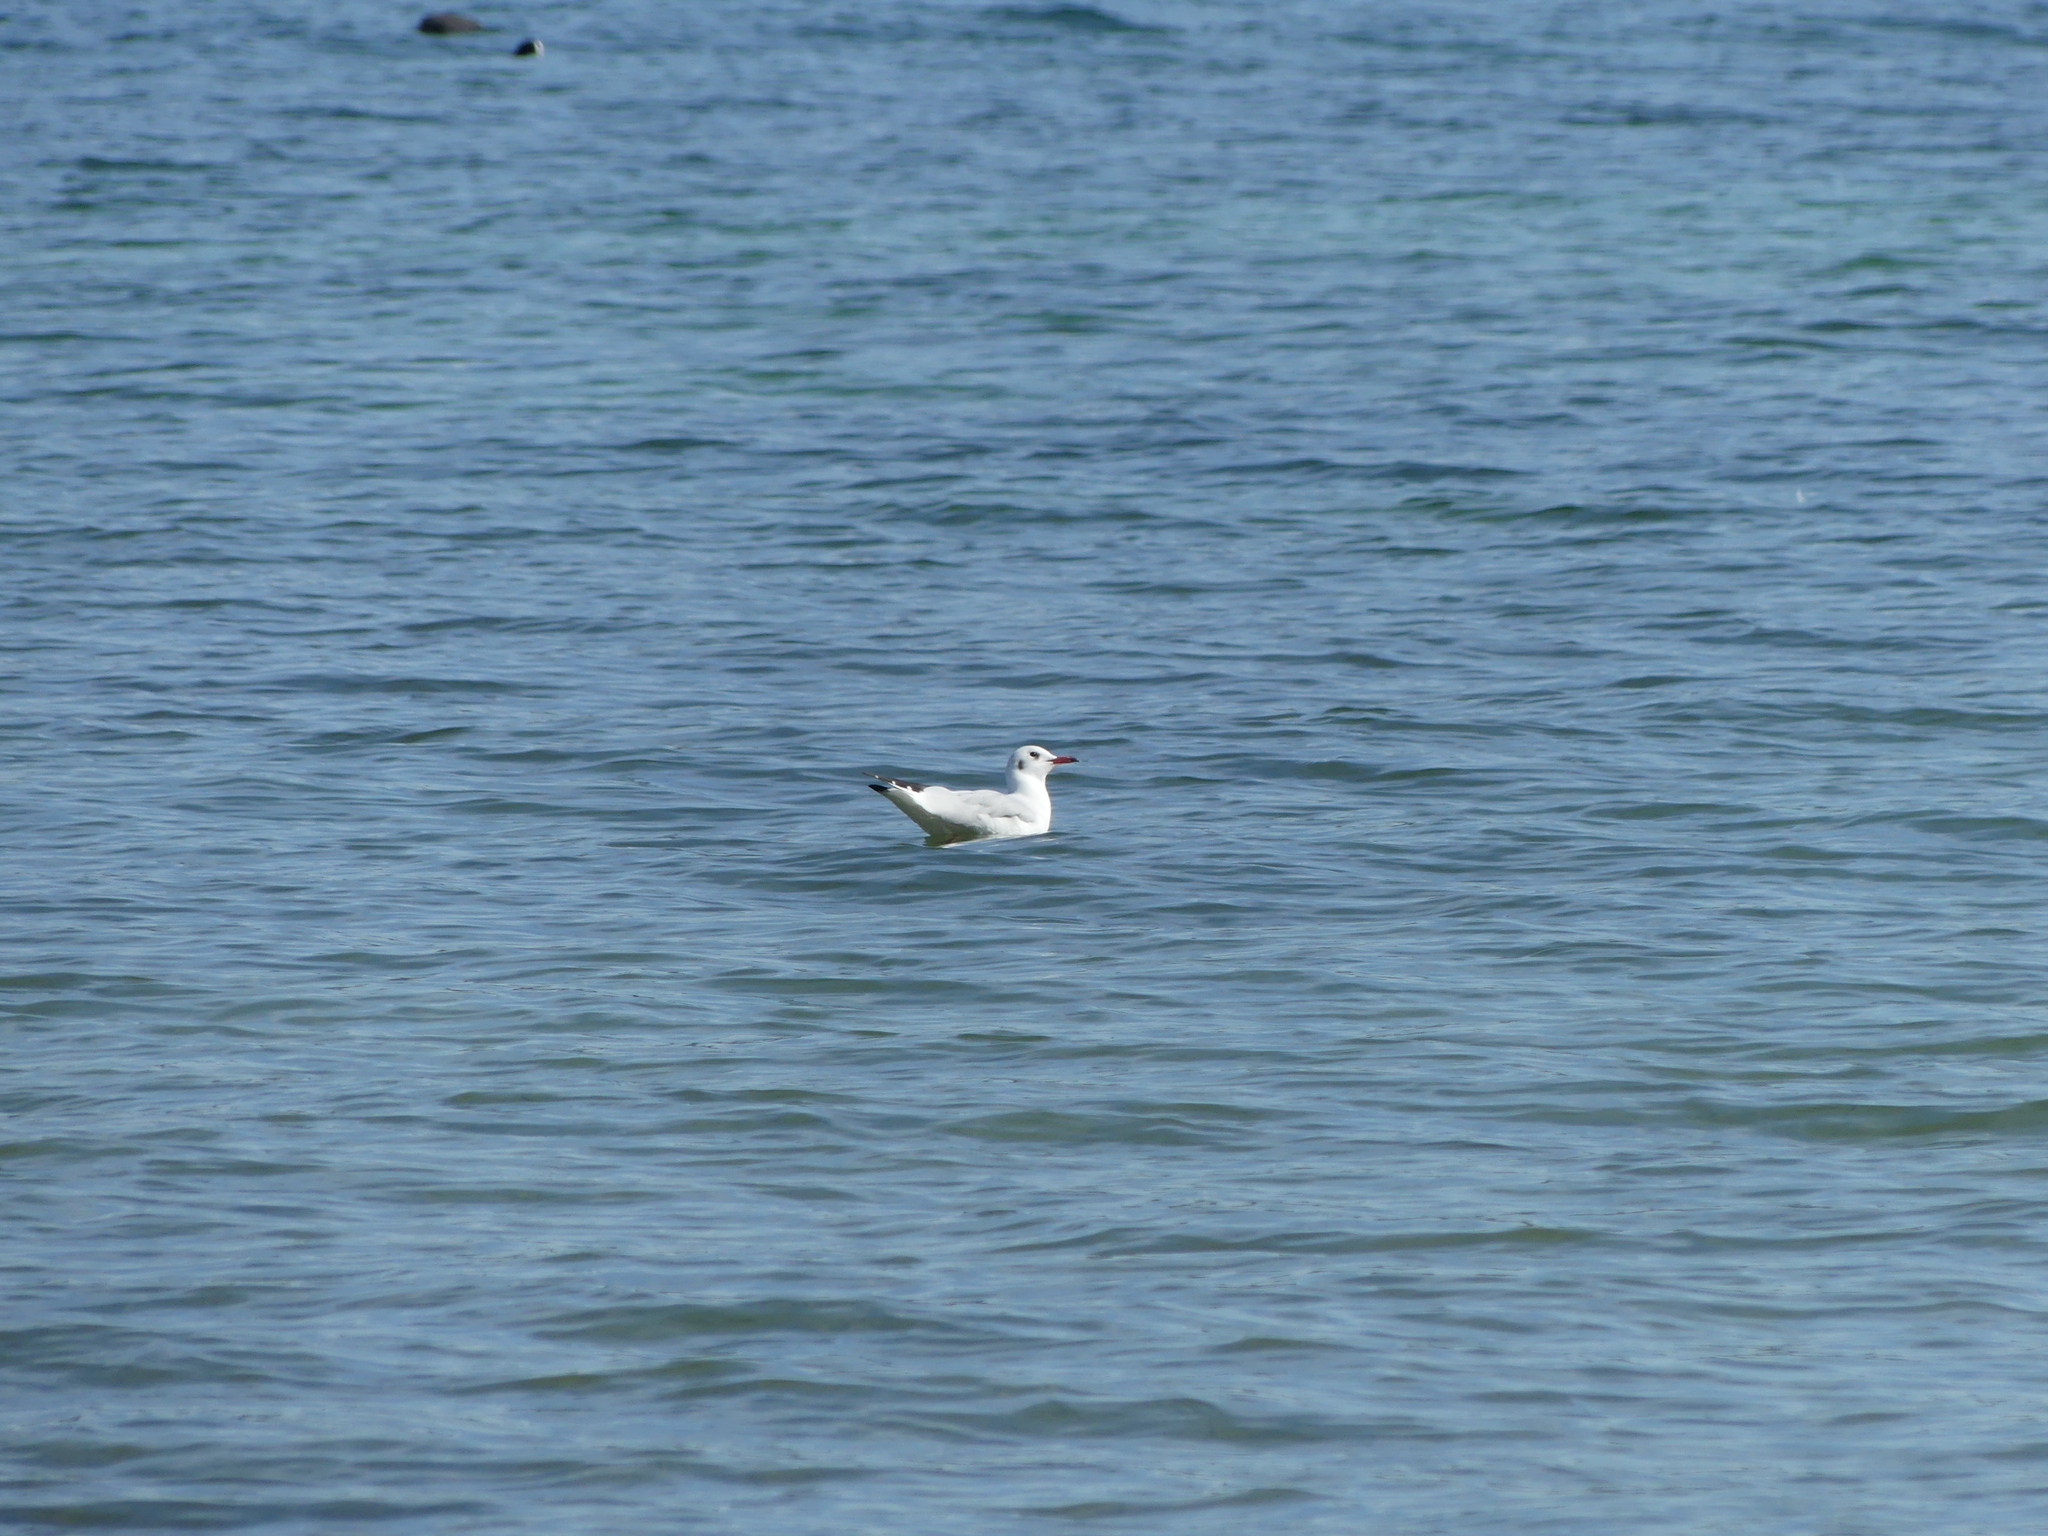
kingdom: Animalia
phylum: Chordata
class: Aves
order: Charadriiformes
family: Laridae
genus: Chroicocephalus
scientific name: Chroicocephalus ridibundus
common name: Black-headed gull
